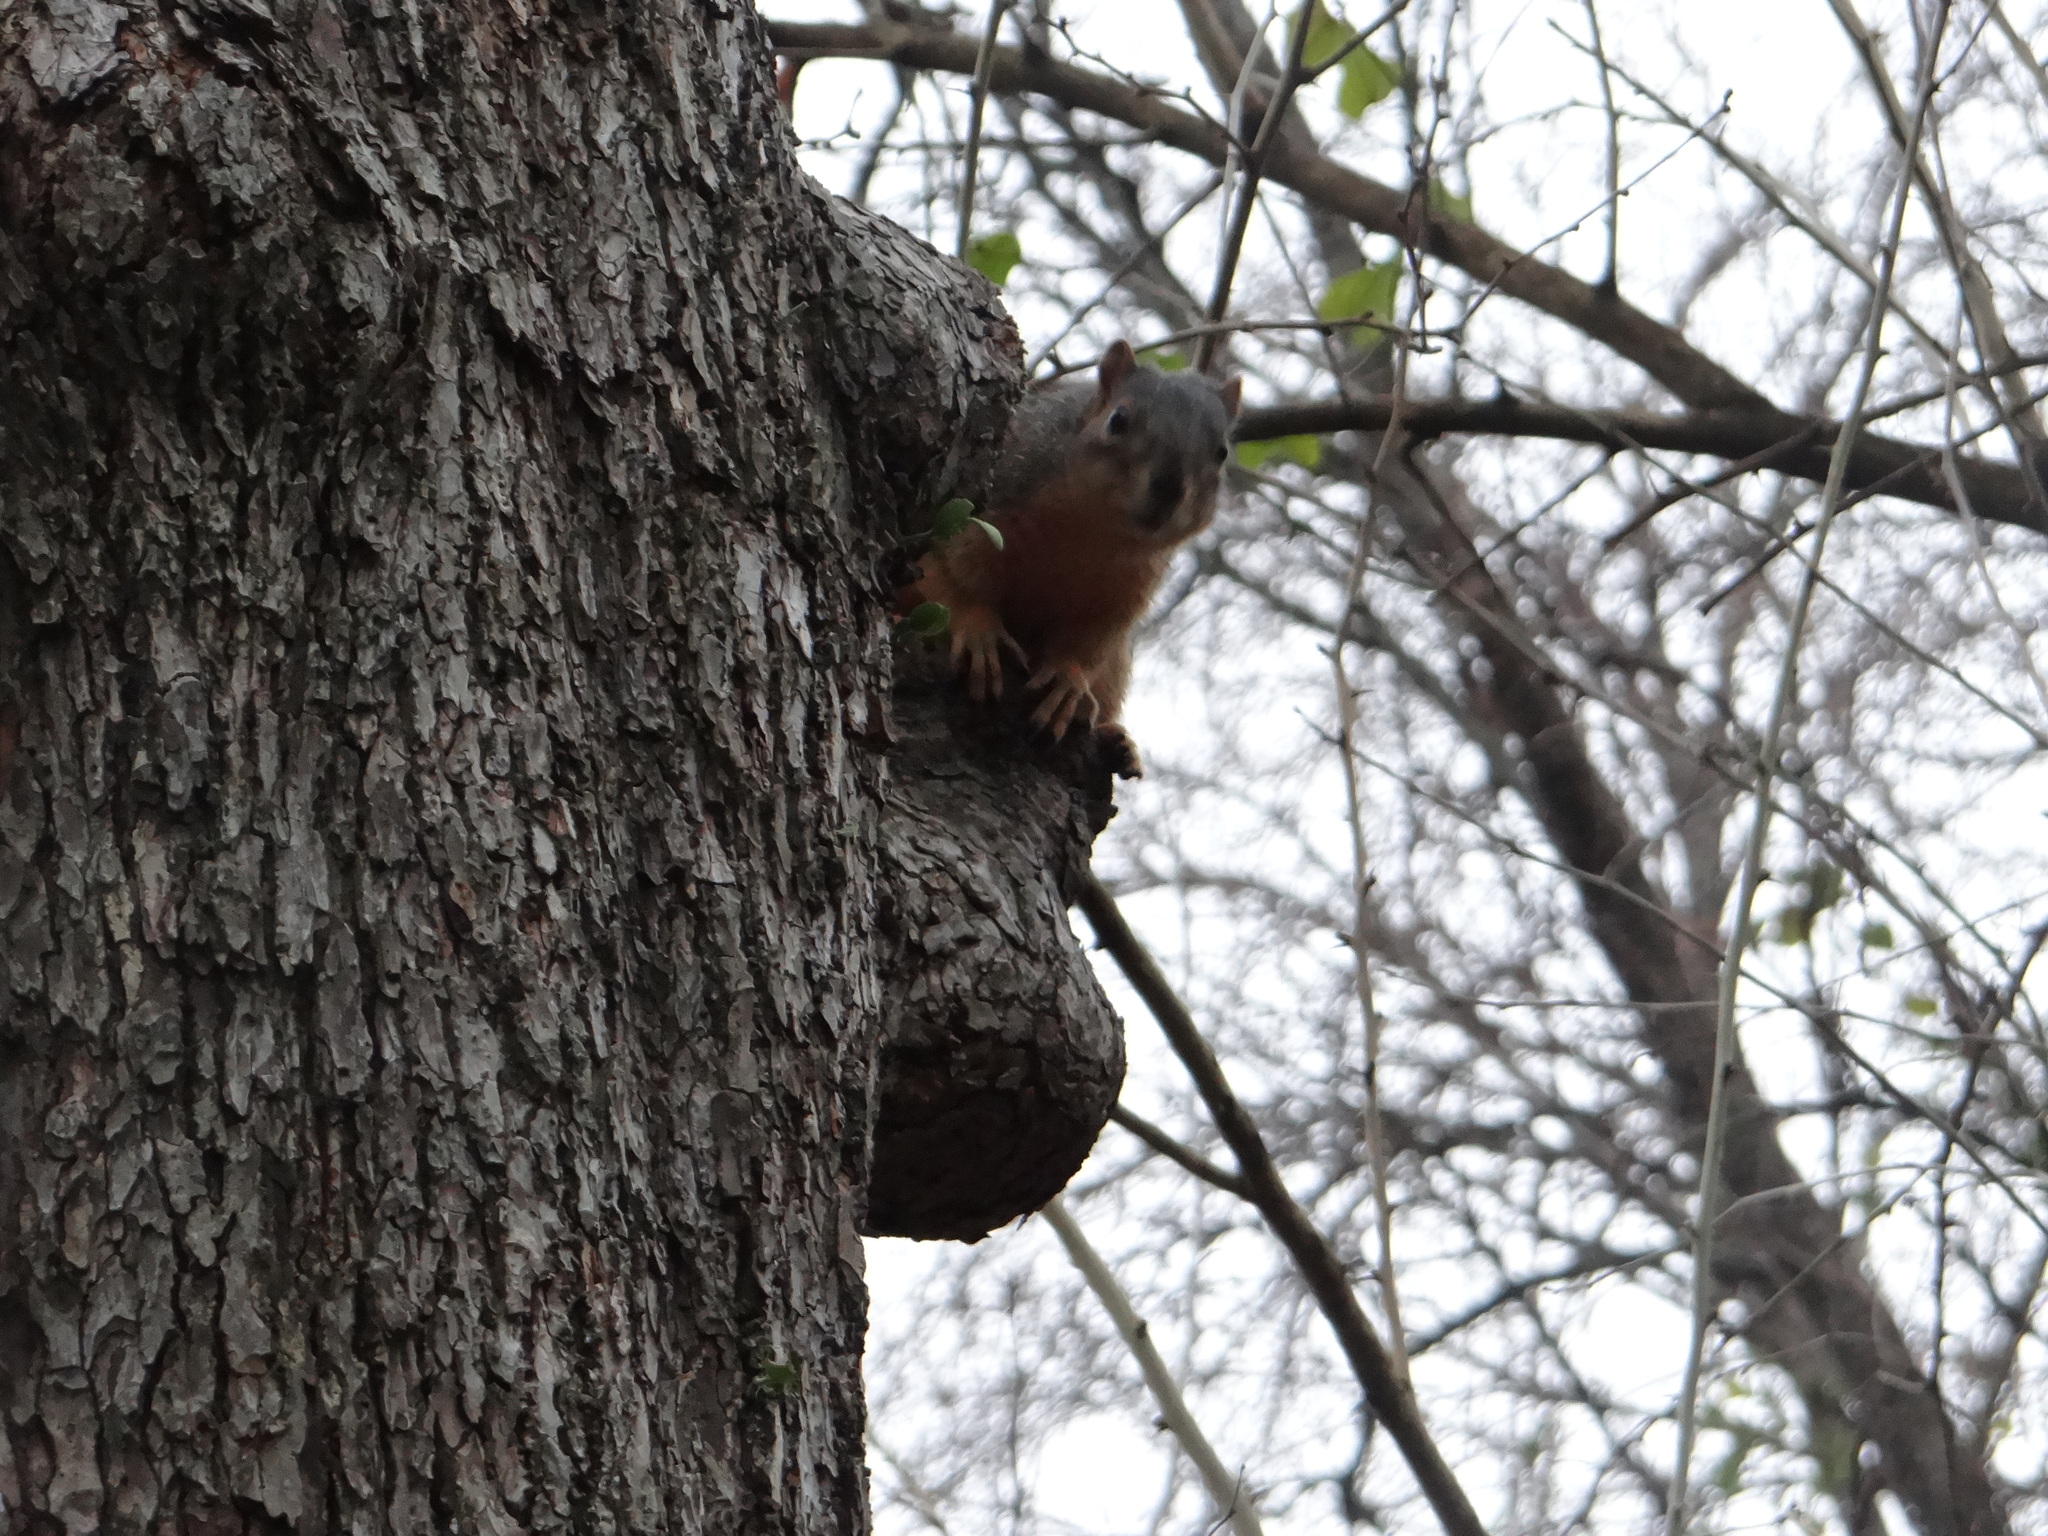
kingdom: Animalia
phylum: Chordata
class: Mammalia
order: Rodentia
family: Sciuridae
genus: Sciurus
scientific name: Sciurus niger
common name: Fox squirrel
